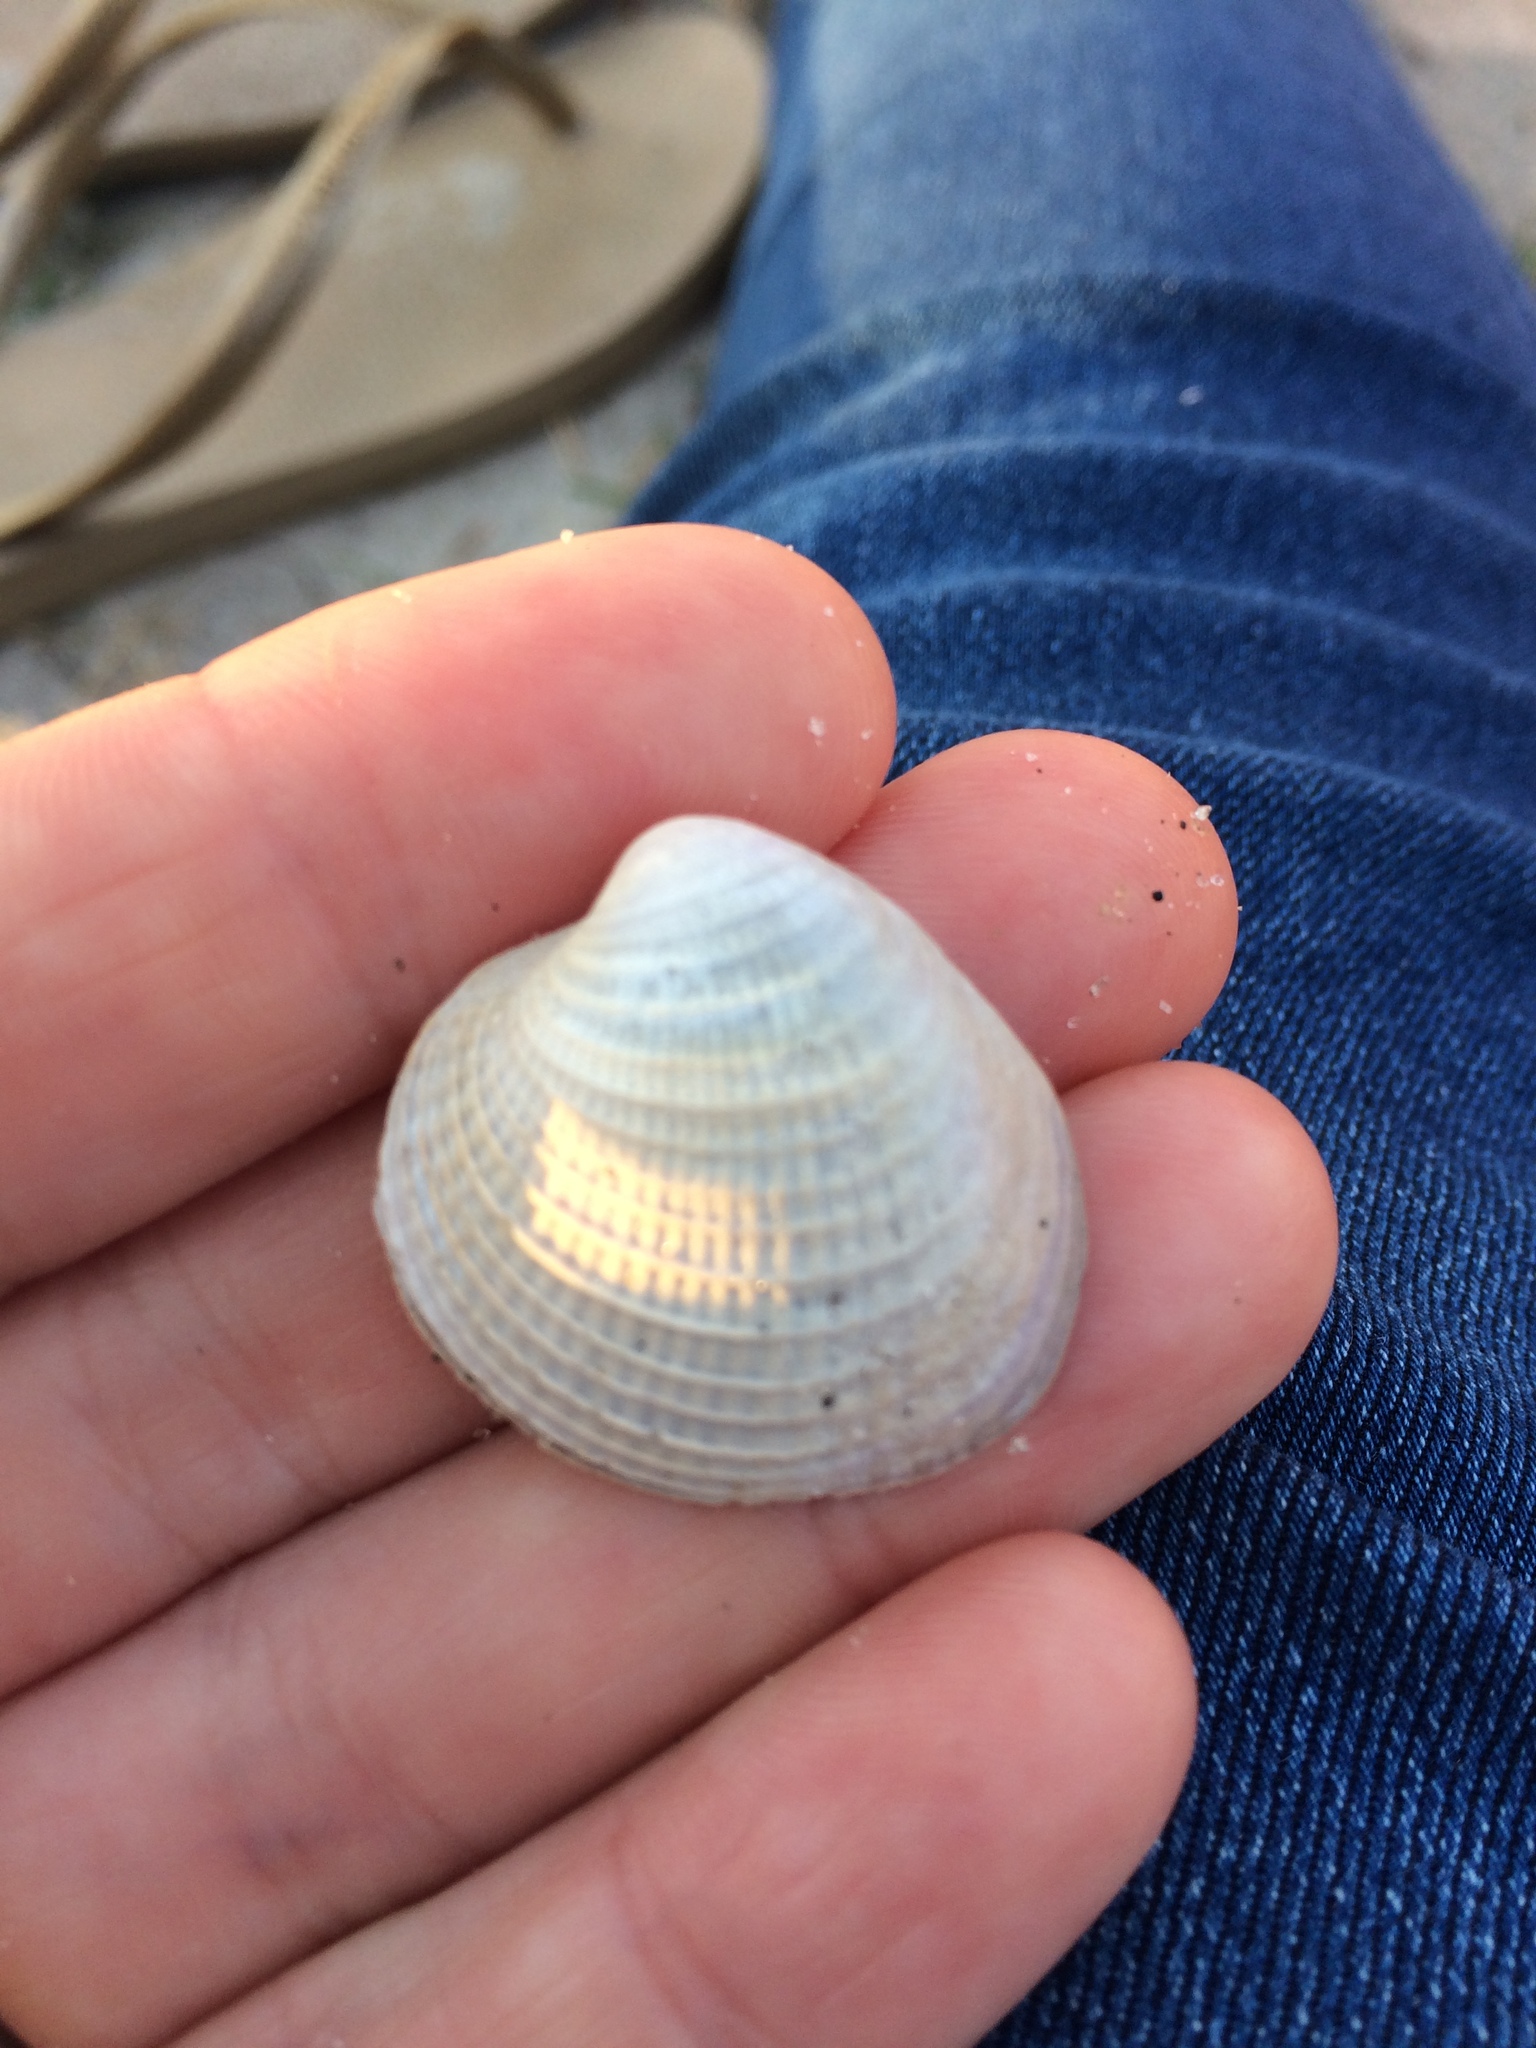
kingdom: Animalia
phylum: Mollusca
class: Bivalvia
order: Venerida
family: Veneridae
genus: Austrovenus
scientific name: Austrovenus stutchburyi
